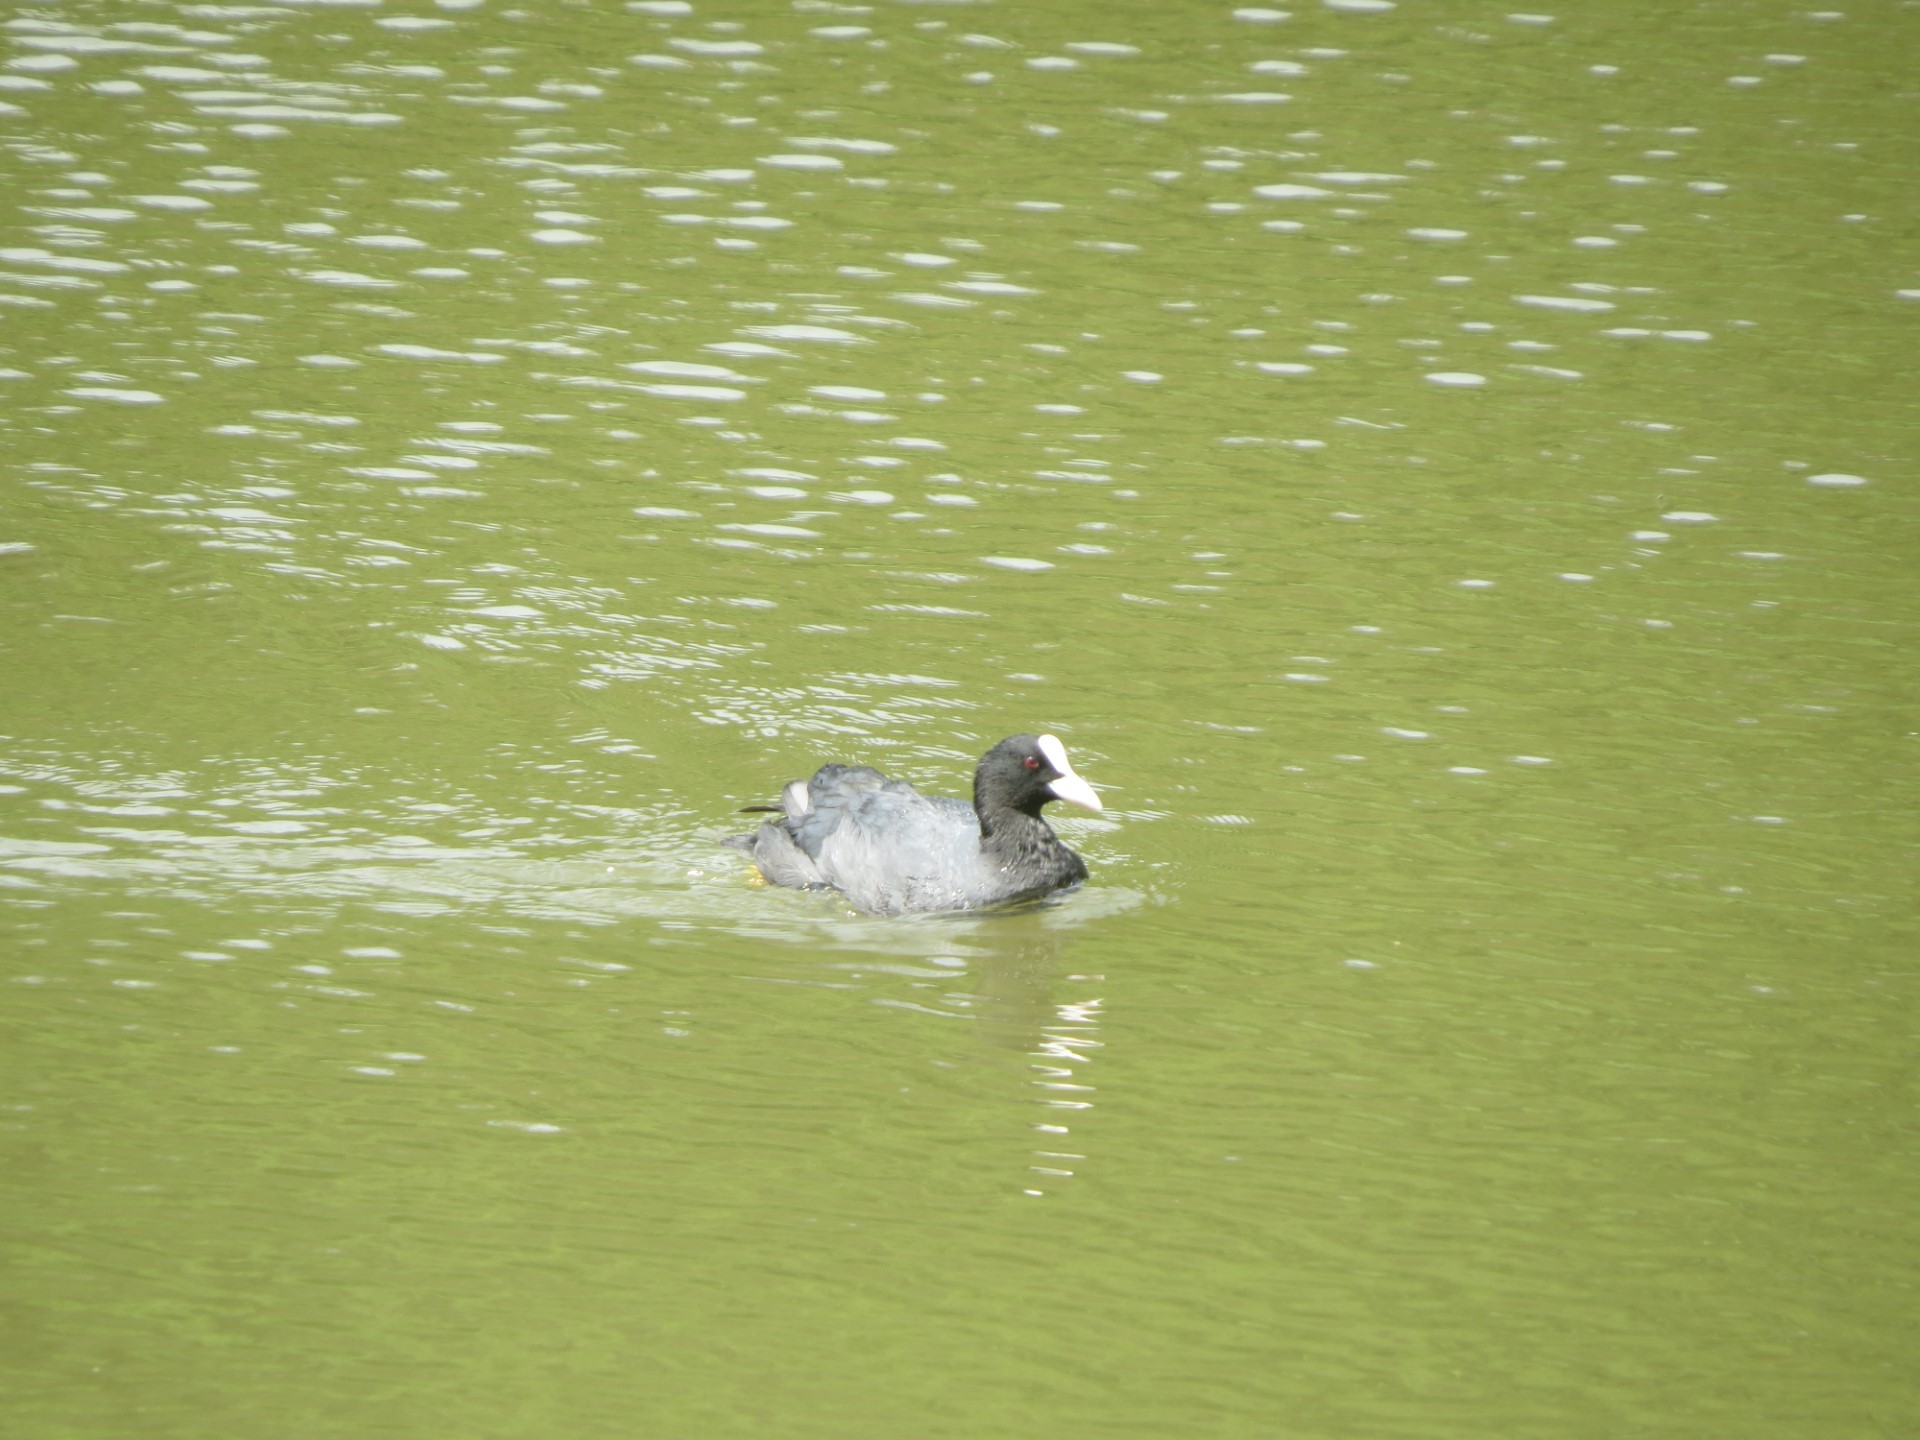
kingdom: Animalia
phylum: Chordata
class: Aves
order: Gruiformes
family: Rallidae
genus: Fulica
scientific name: Fulica atra
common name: Eurasian coot
